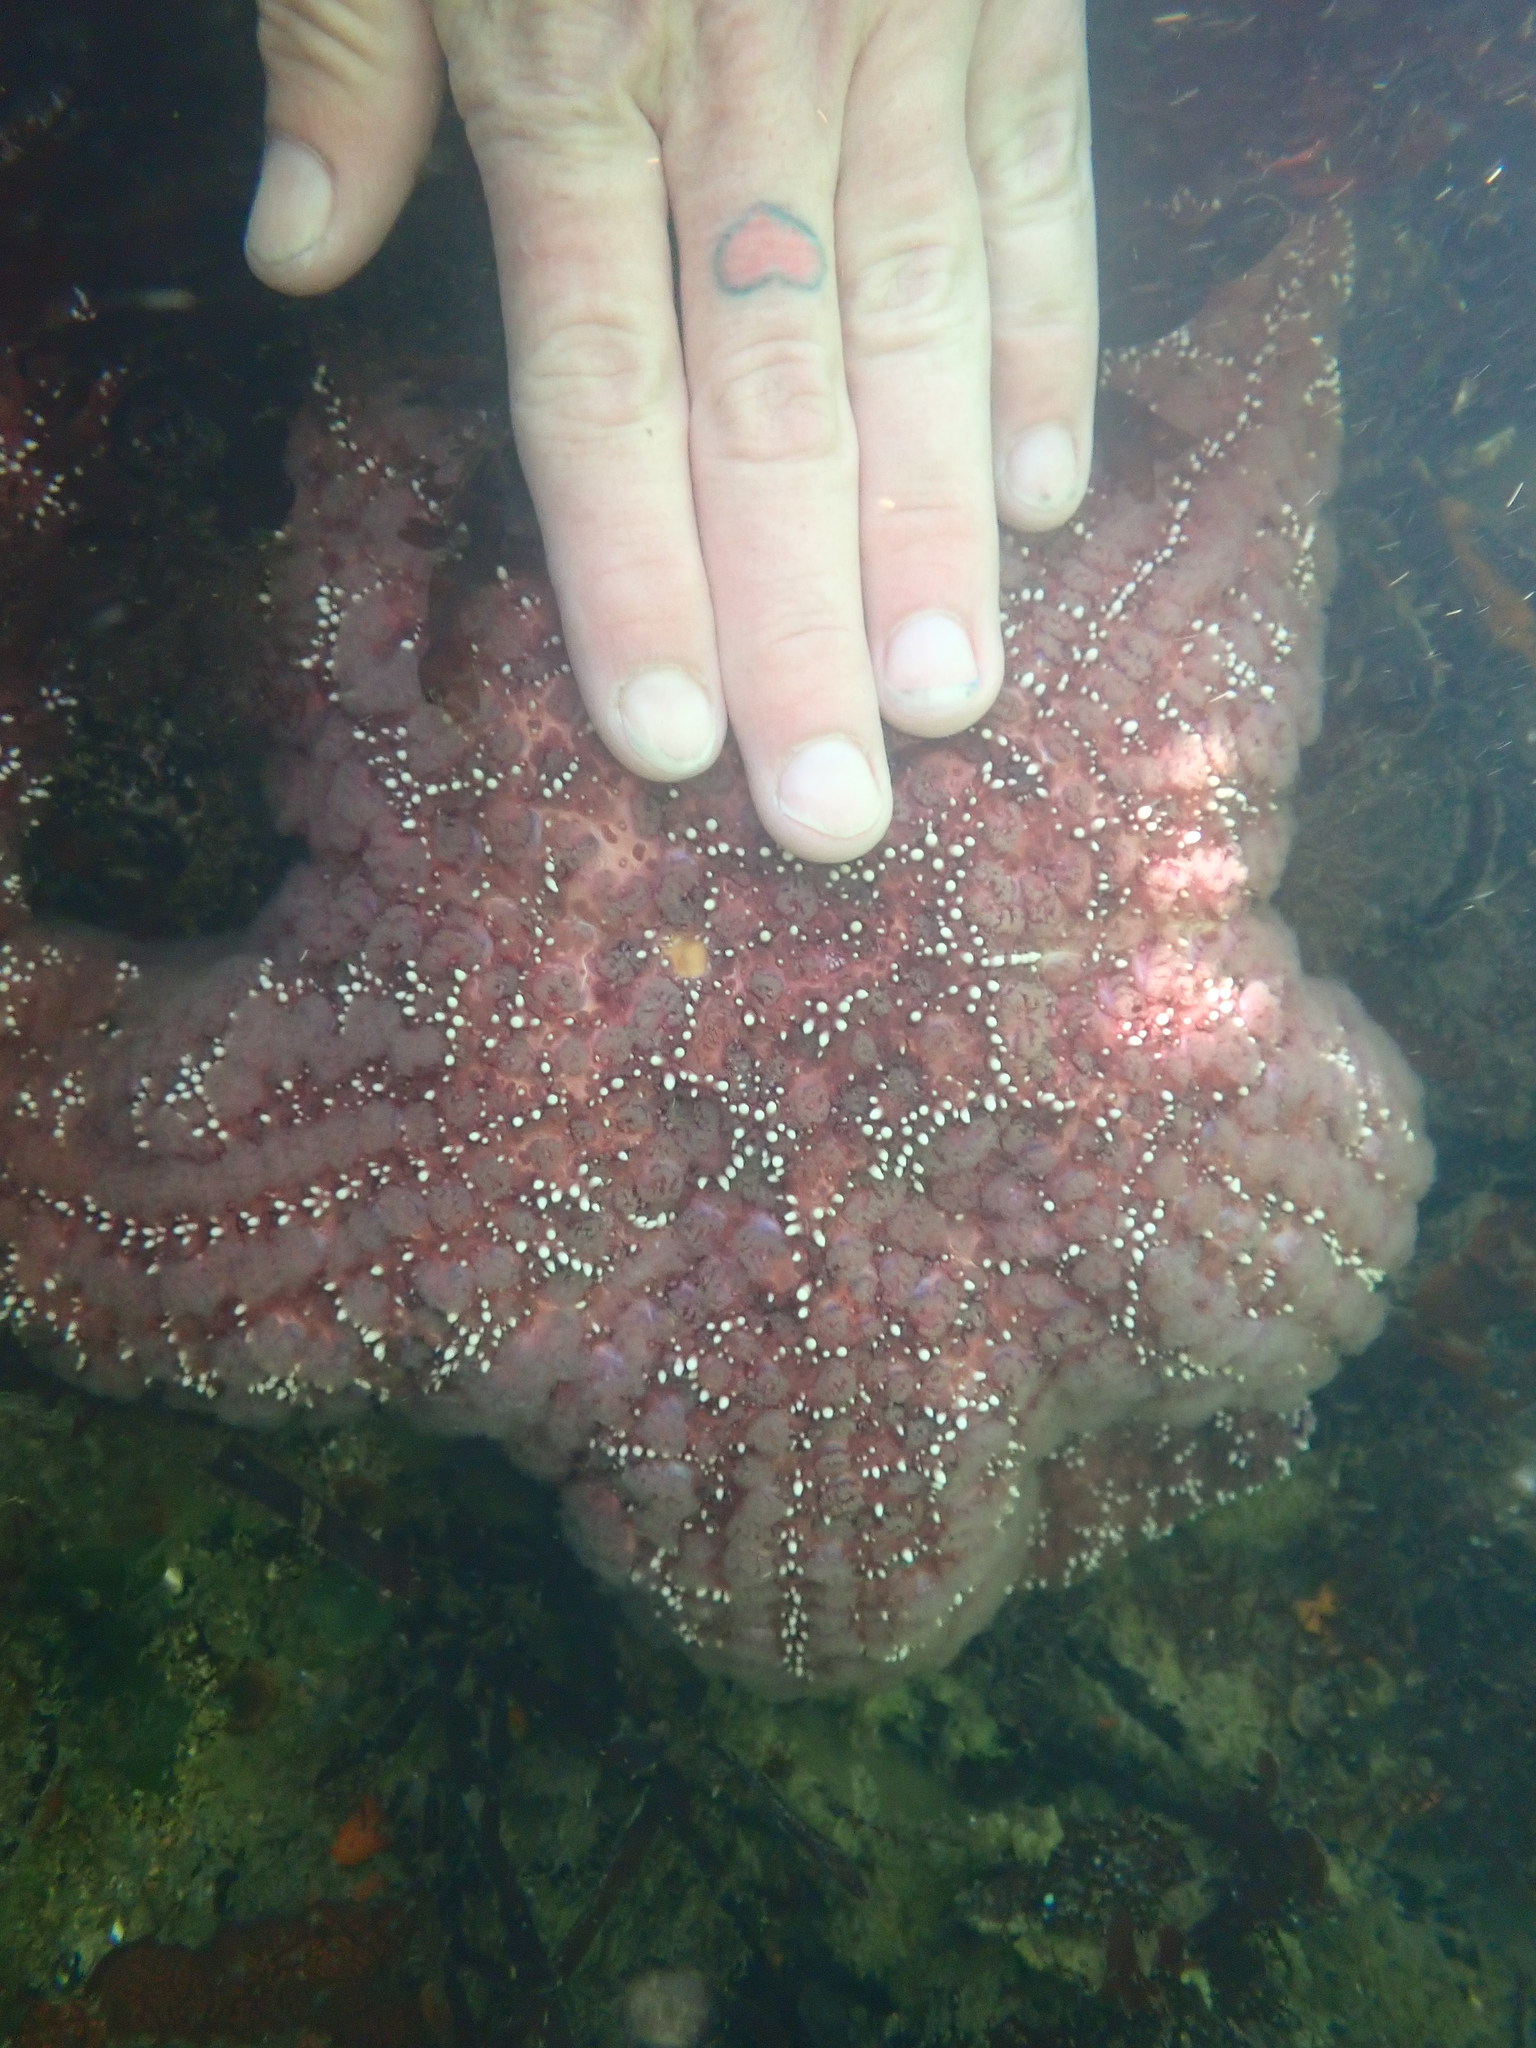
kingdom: Animalia
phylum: Echinodermata
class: Asteroidea
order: Forcipulatida
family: Asteriidae
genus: Pisaster
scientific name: Pisaster ochraceus
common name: Ochre stars
